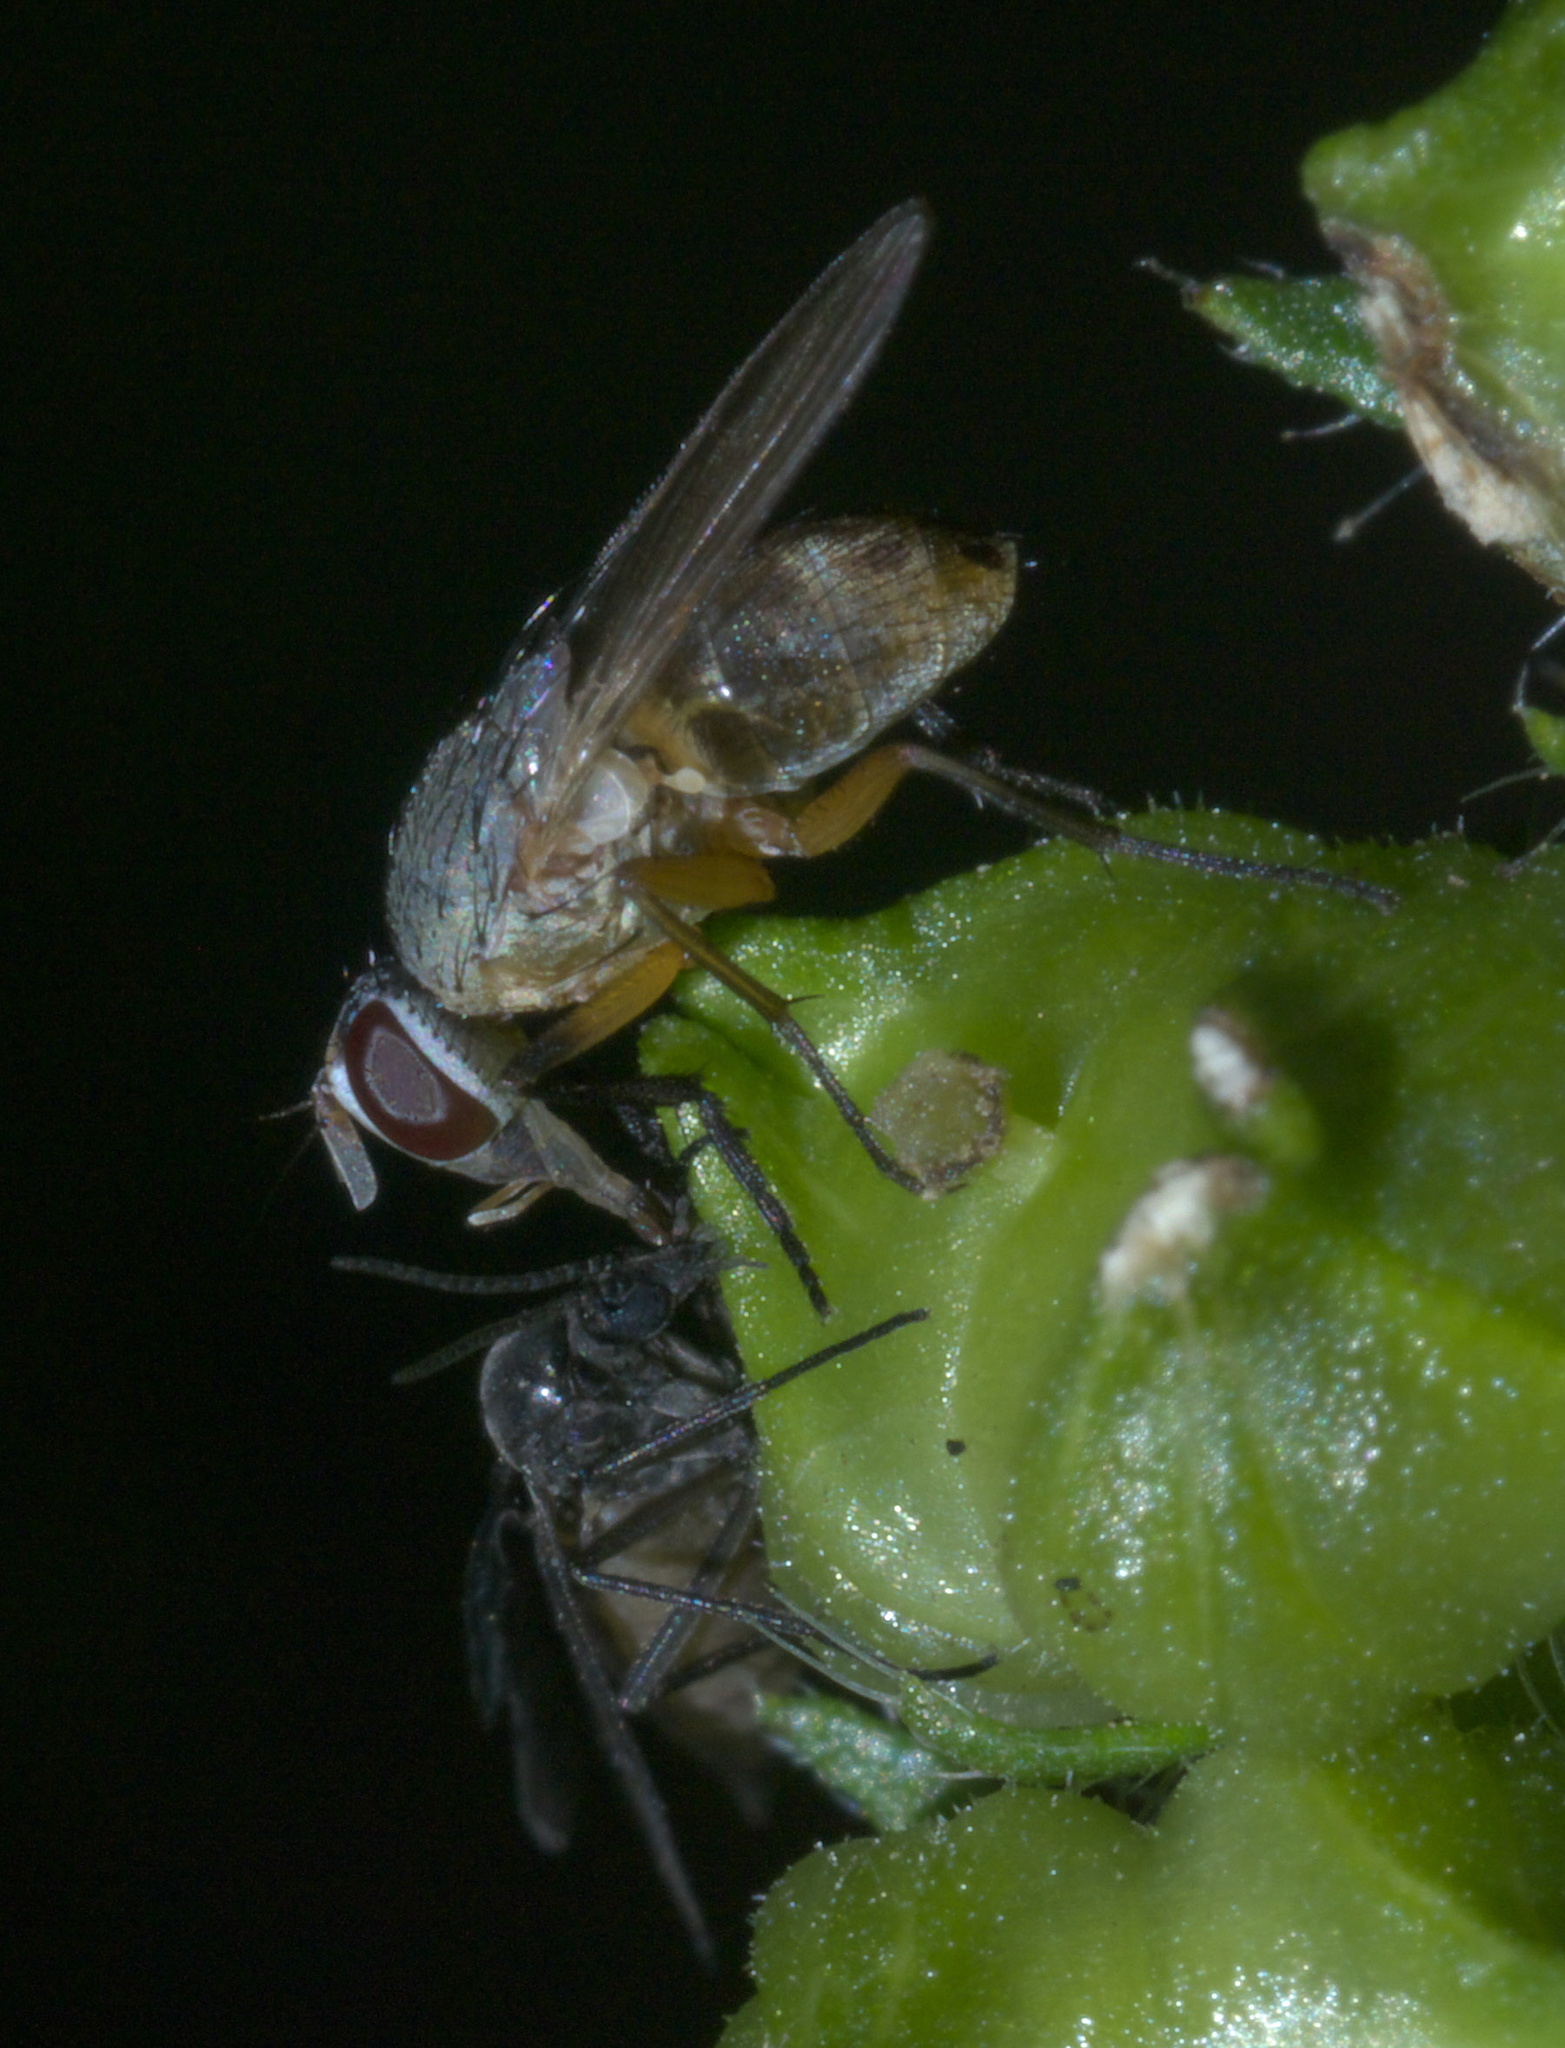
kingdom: Animalia
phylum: Arthropoda
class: Insecta
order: Diptera
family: Muscidae
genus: Atherigona
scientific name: Atherigona reversura
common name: Bermudagrass stem maggot
